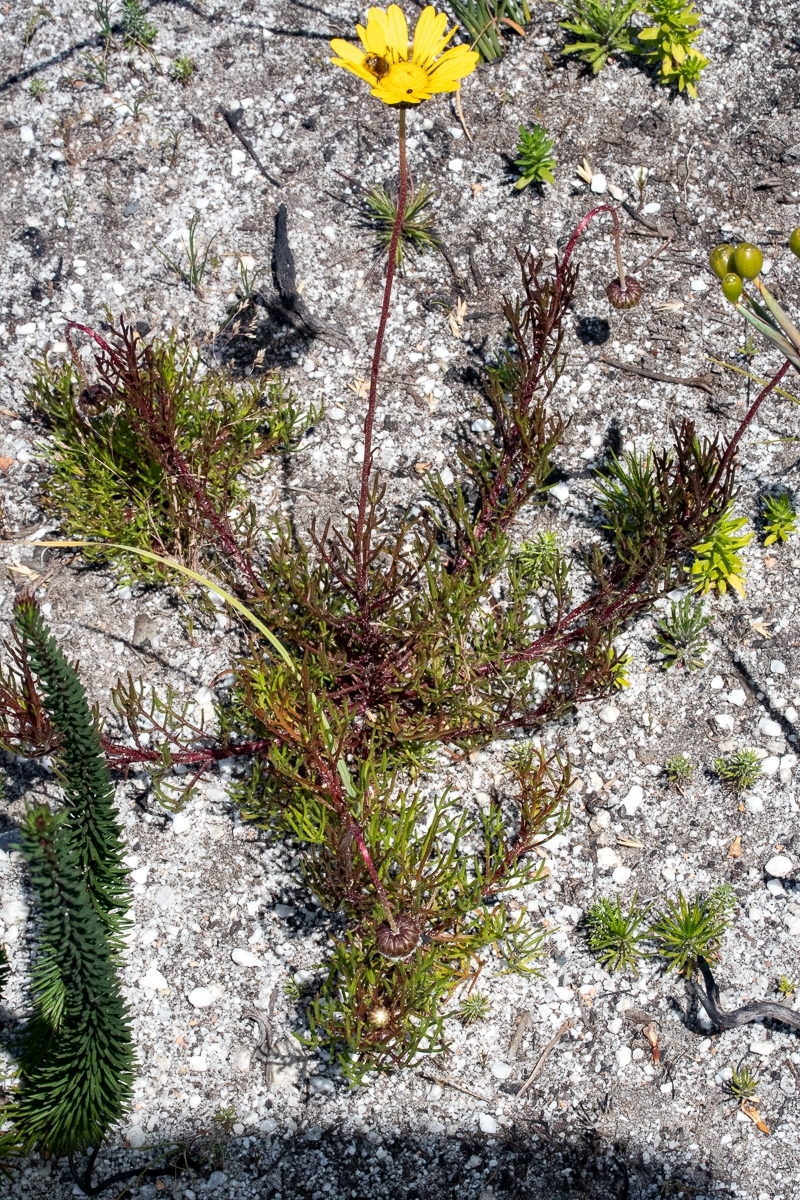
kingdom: Plantae
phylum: Tracheophyta
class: Magnoliopsida
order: Asterales
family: Asteraceae
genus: Ursinia
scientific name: Ursinia paleacea
